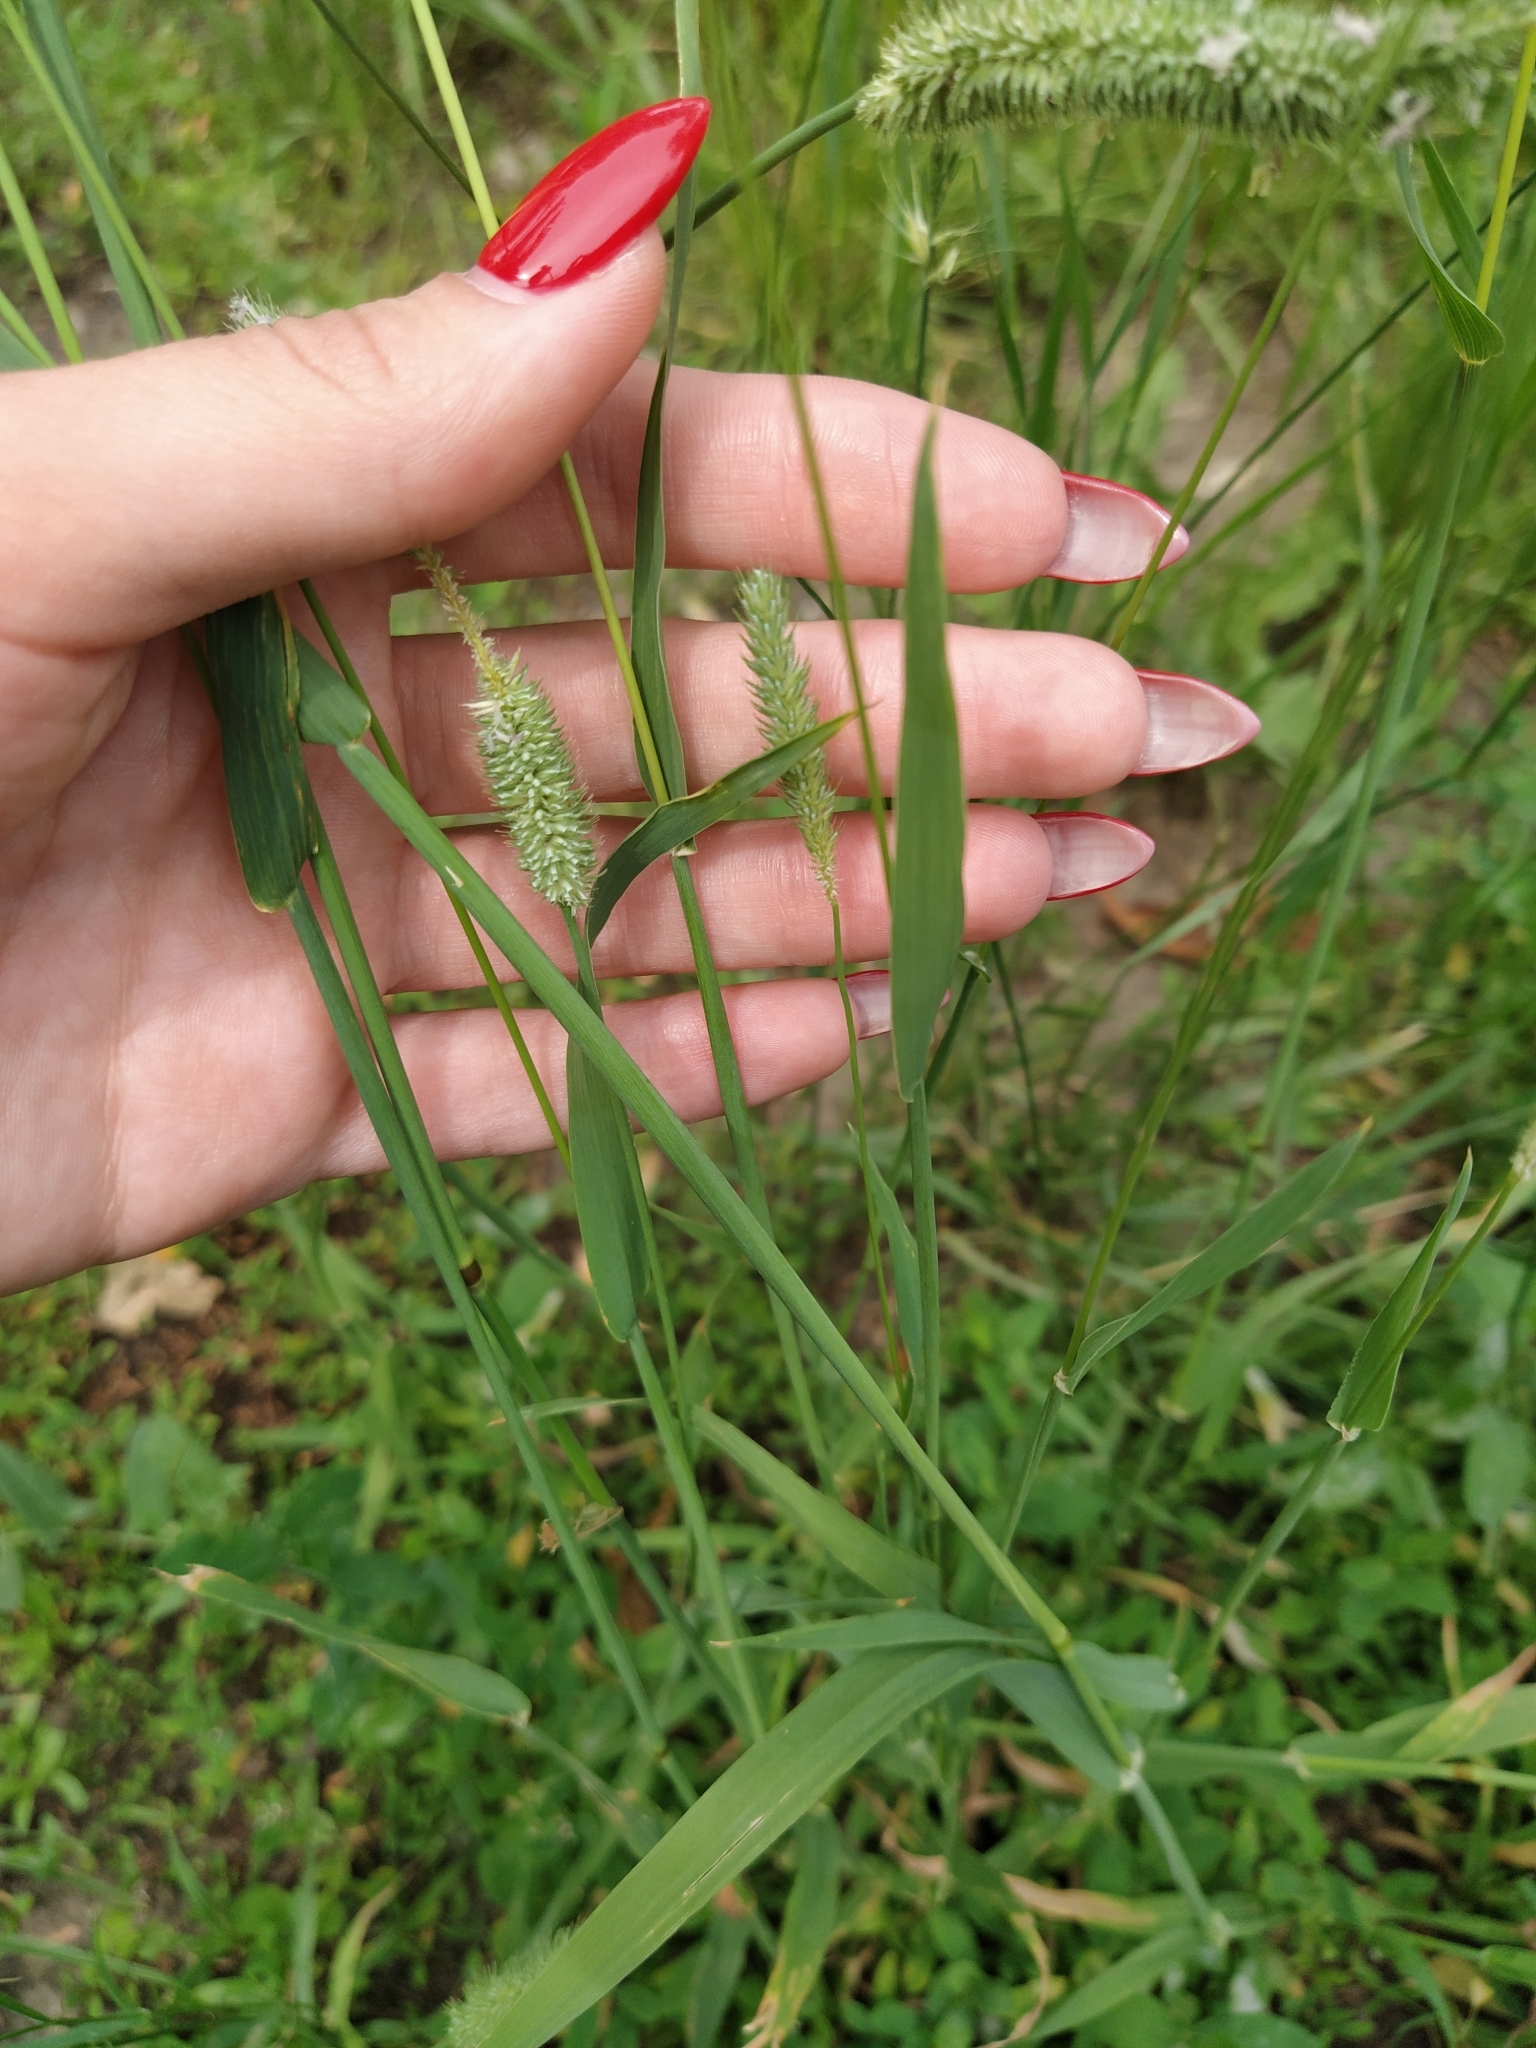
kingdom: Plantae
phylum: Tracheophyta
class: Liliopsida
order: Poales
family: Poaceae
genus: Phleum
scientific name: Phleum pratense
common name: Timothy grass
